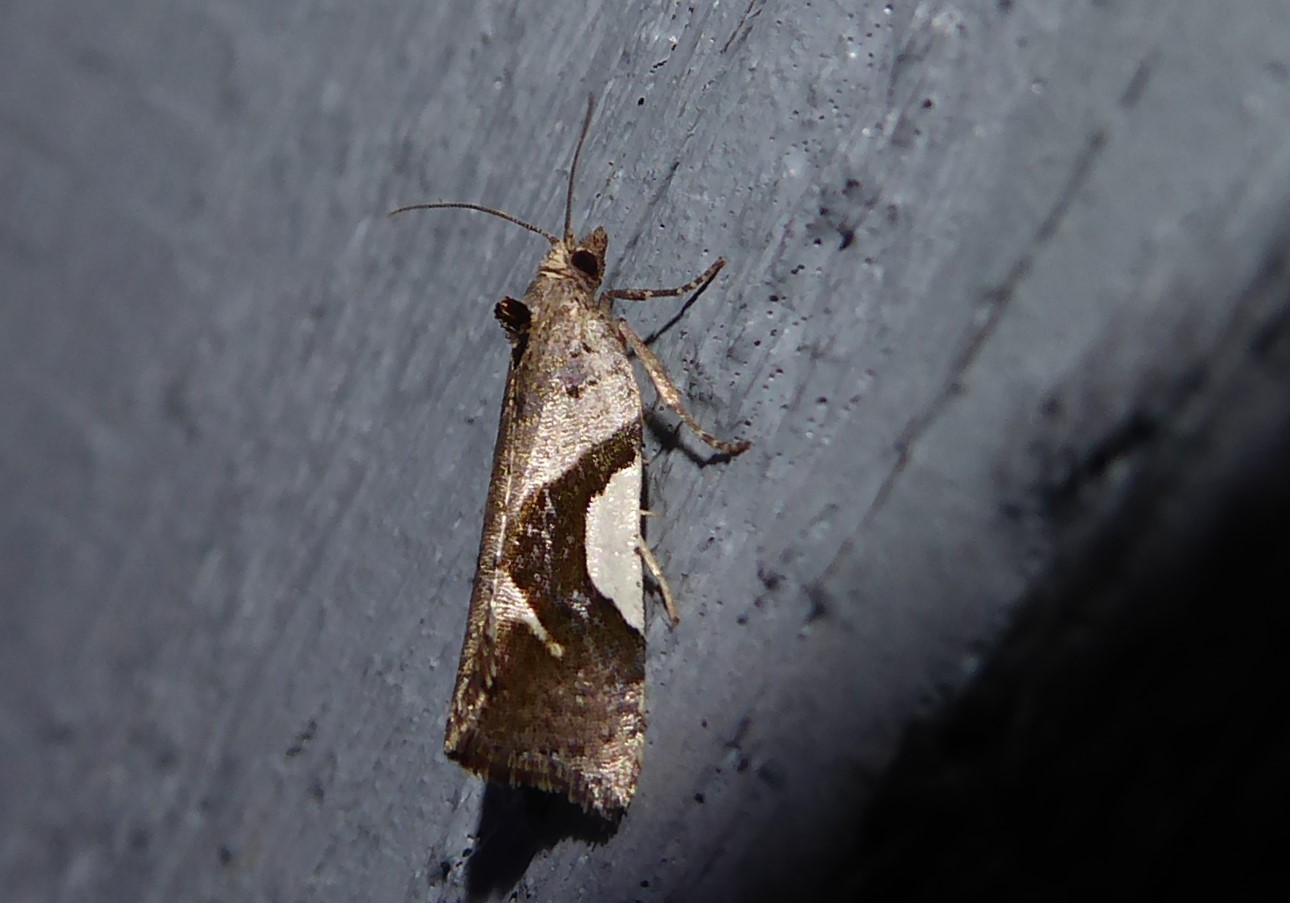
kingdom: Animalia
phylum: Arthropoda
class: Insecta
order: Lepidoptera
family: Tortricidae
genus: Pyrgotis
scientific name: Pyrgotis plagiatana
